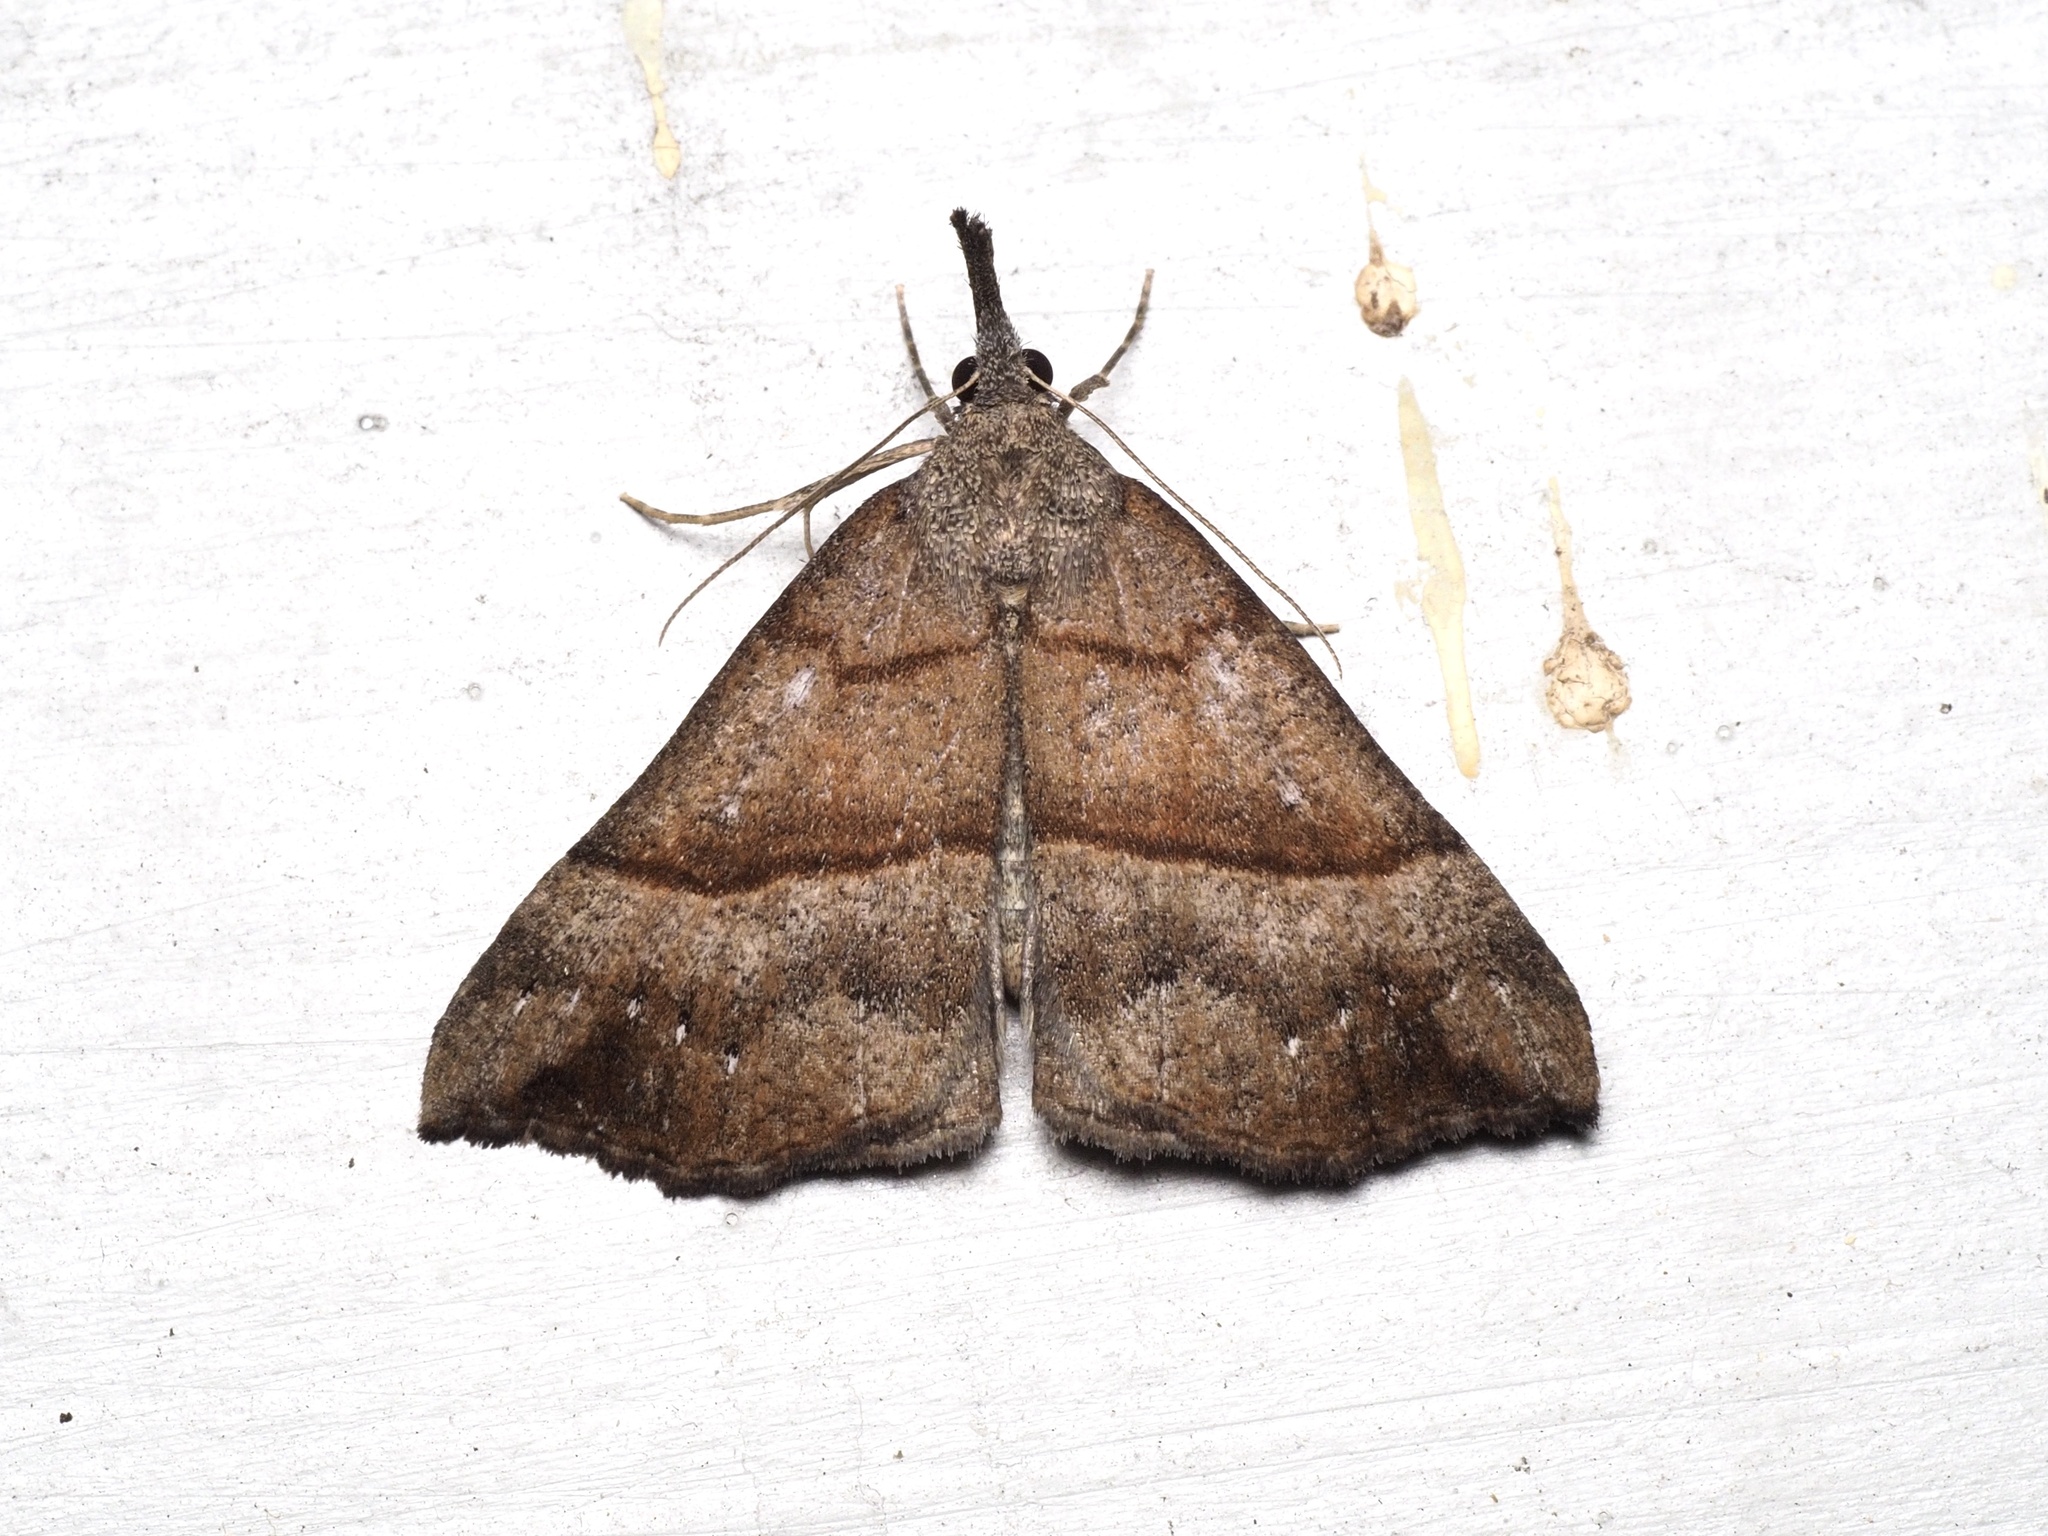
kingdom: Animalia
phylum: Arthropoda
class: Insecta
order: Lepidoptera
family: Erebidae
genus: Hypena
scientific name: Hypena proboscidalis
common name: Snout
